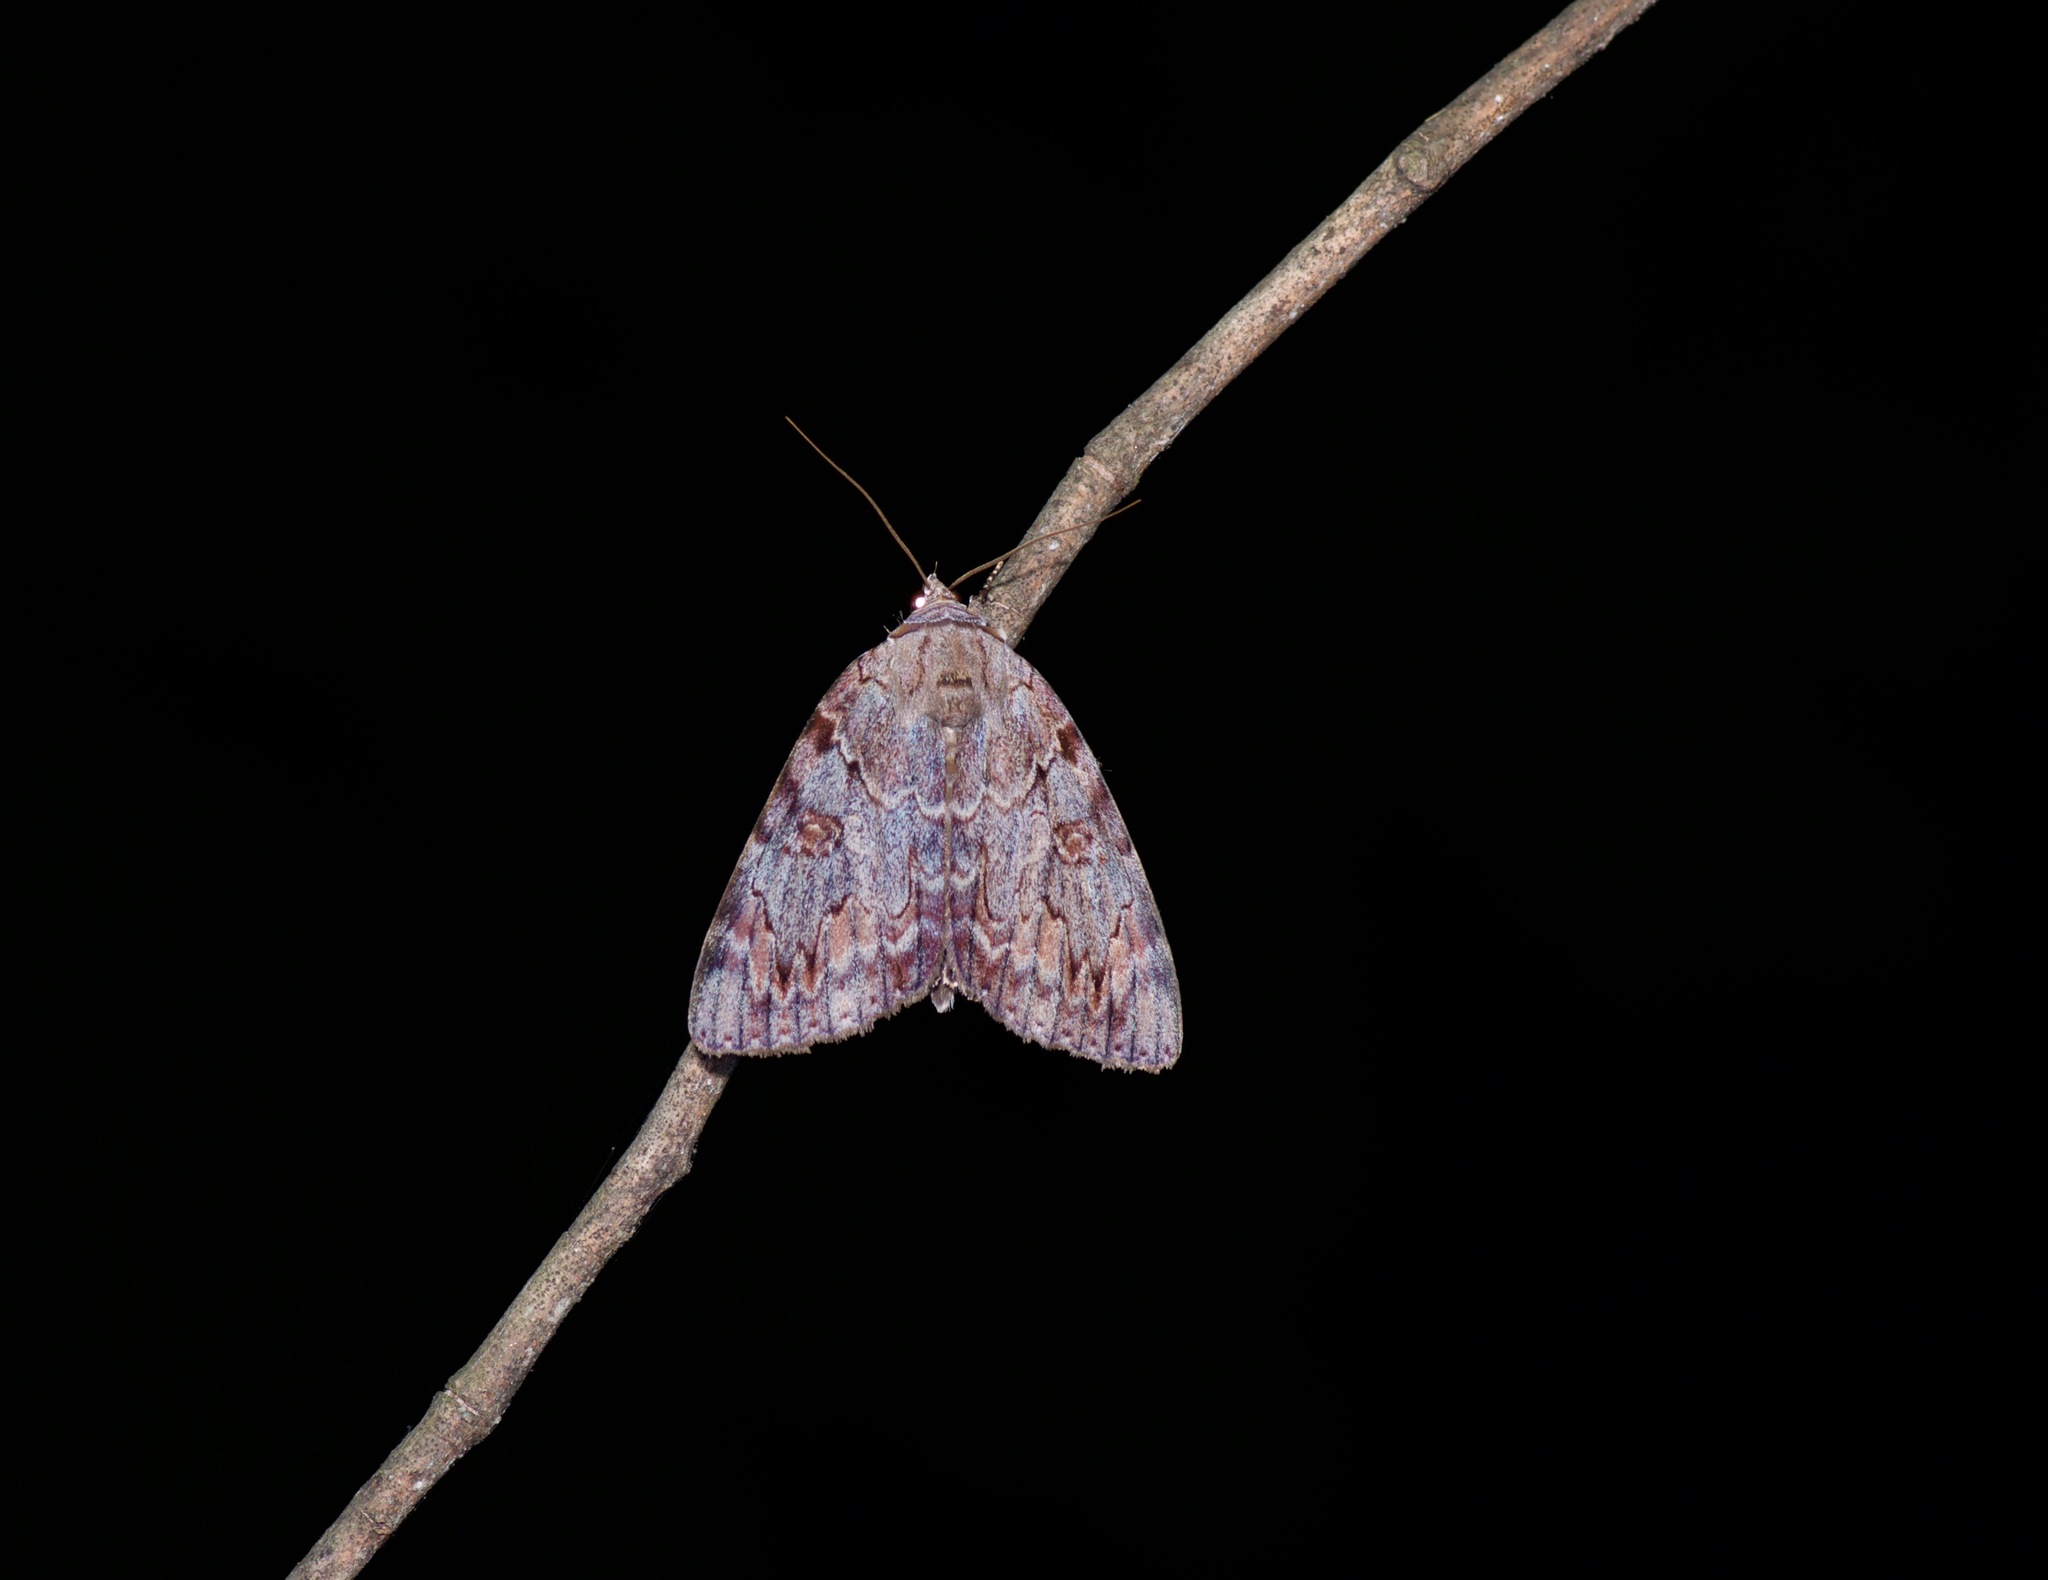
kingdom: Animalia
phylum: Arthropoda
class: Insecta
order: Lepidoptera
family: Erebidae
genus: Catocala
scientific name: Catocala agrippina
